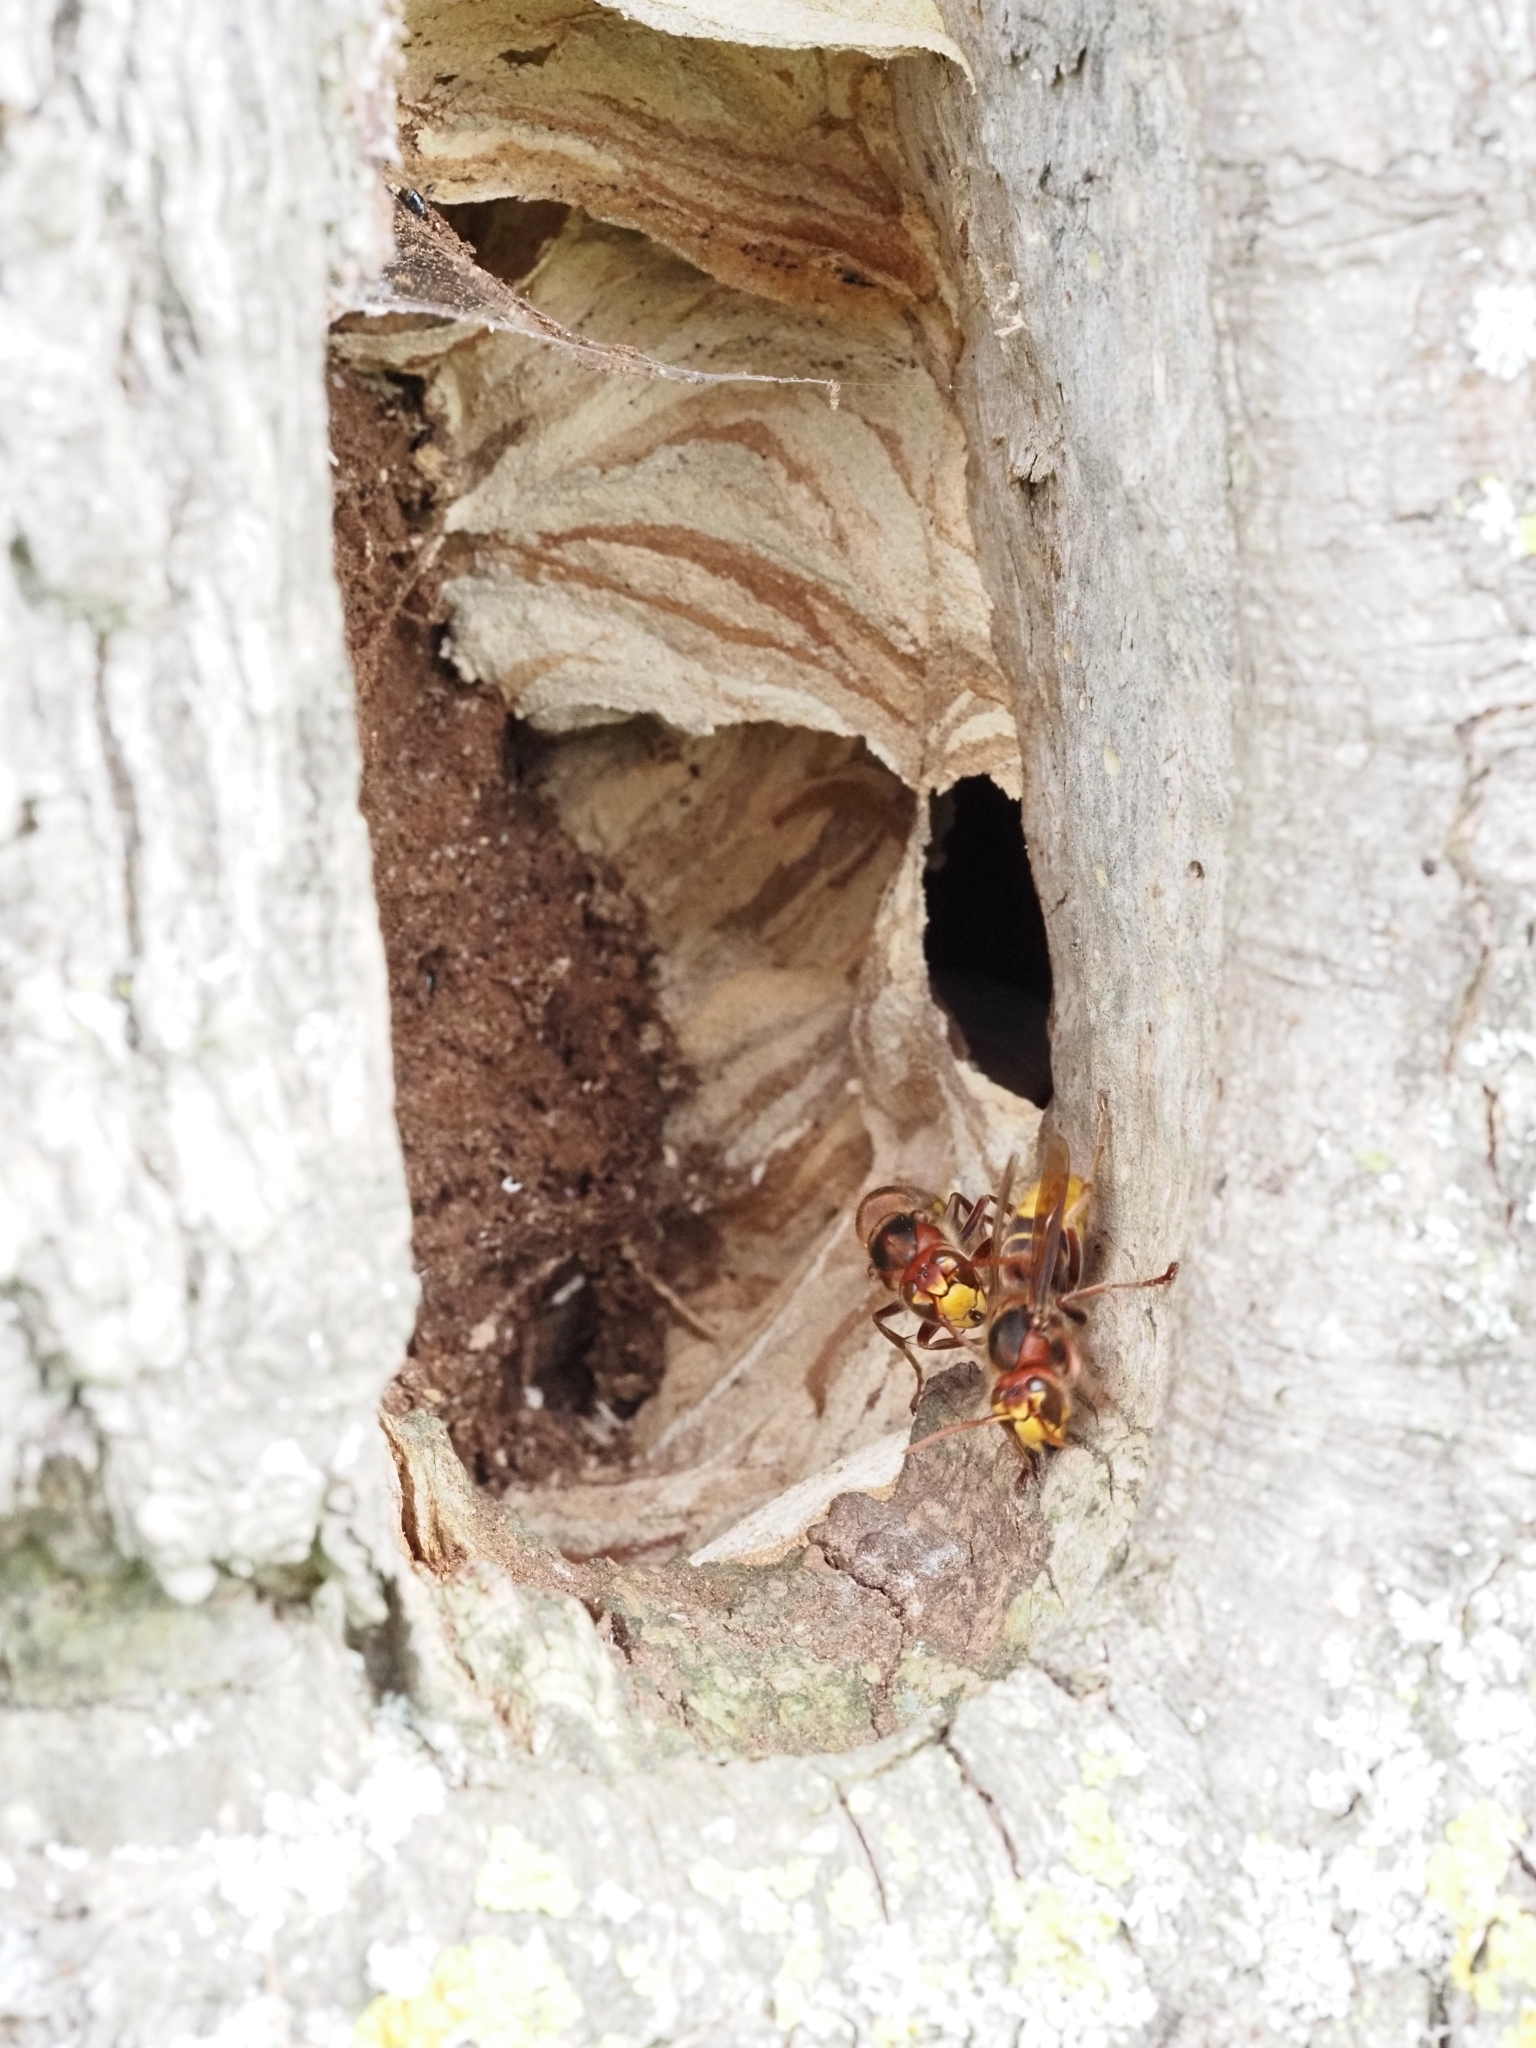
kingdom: Animalia
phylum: Arthropoda
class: Insecta
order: Hymenoptera
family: Vespidae
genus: Vespa
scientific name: Vespa crabro
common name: Hornet
